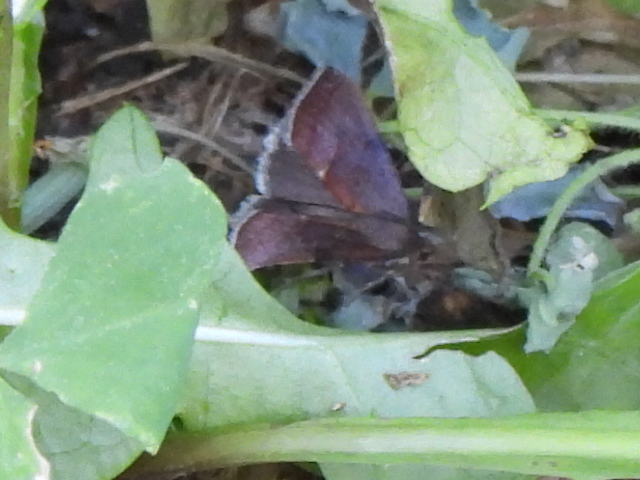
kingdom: Animalia
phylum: Arthropoda
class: Insecta
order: Lepidoptera
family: Noctuidae
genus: Galgula
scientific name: Galgula partita
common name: Wedgeling
